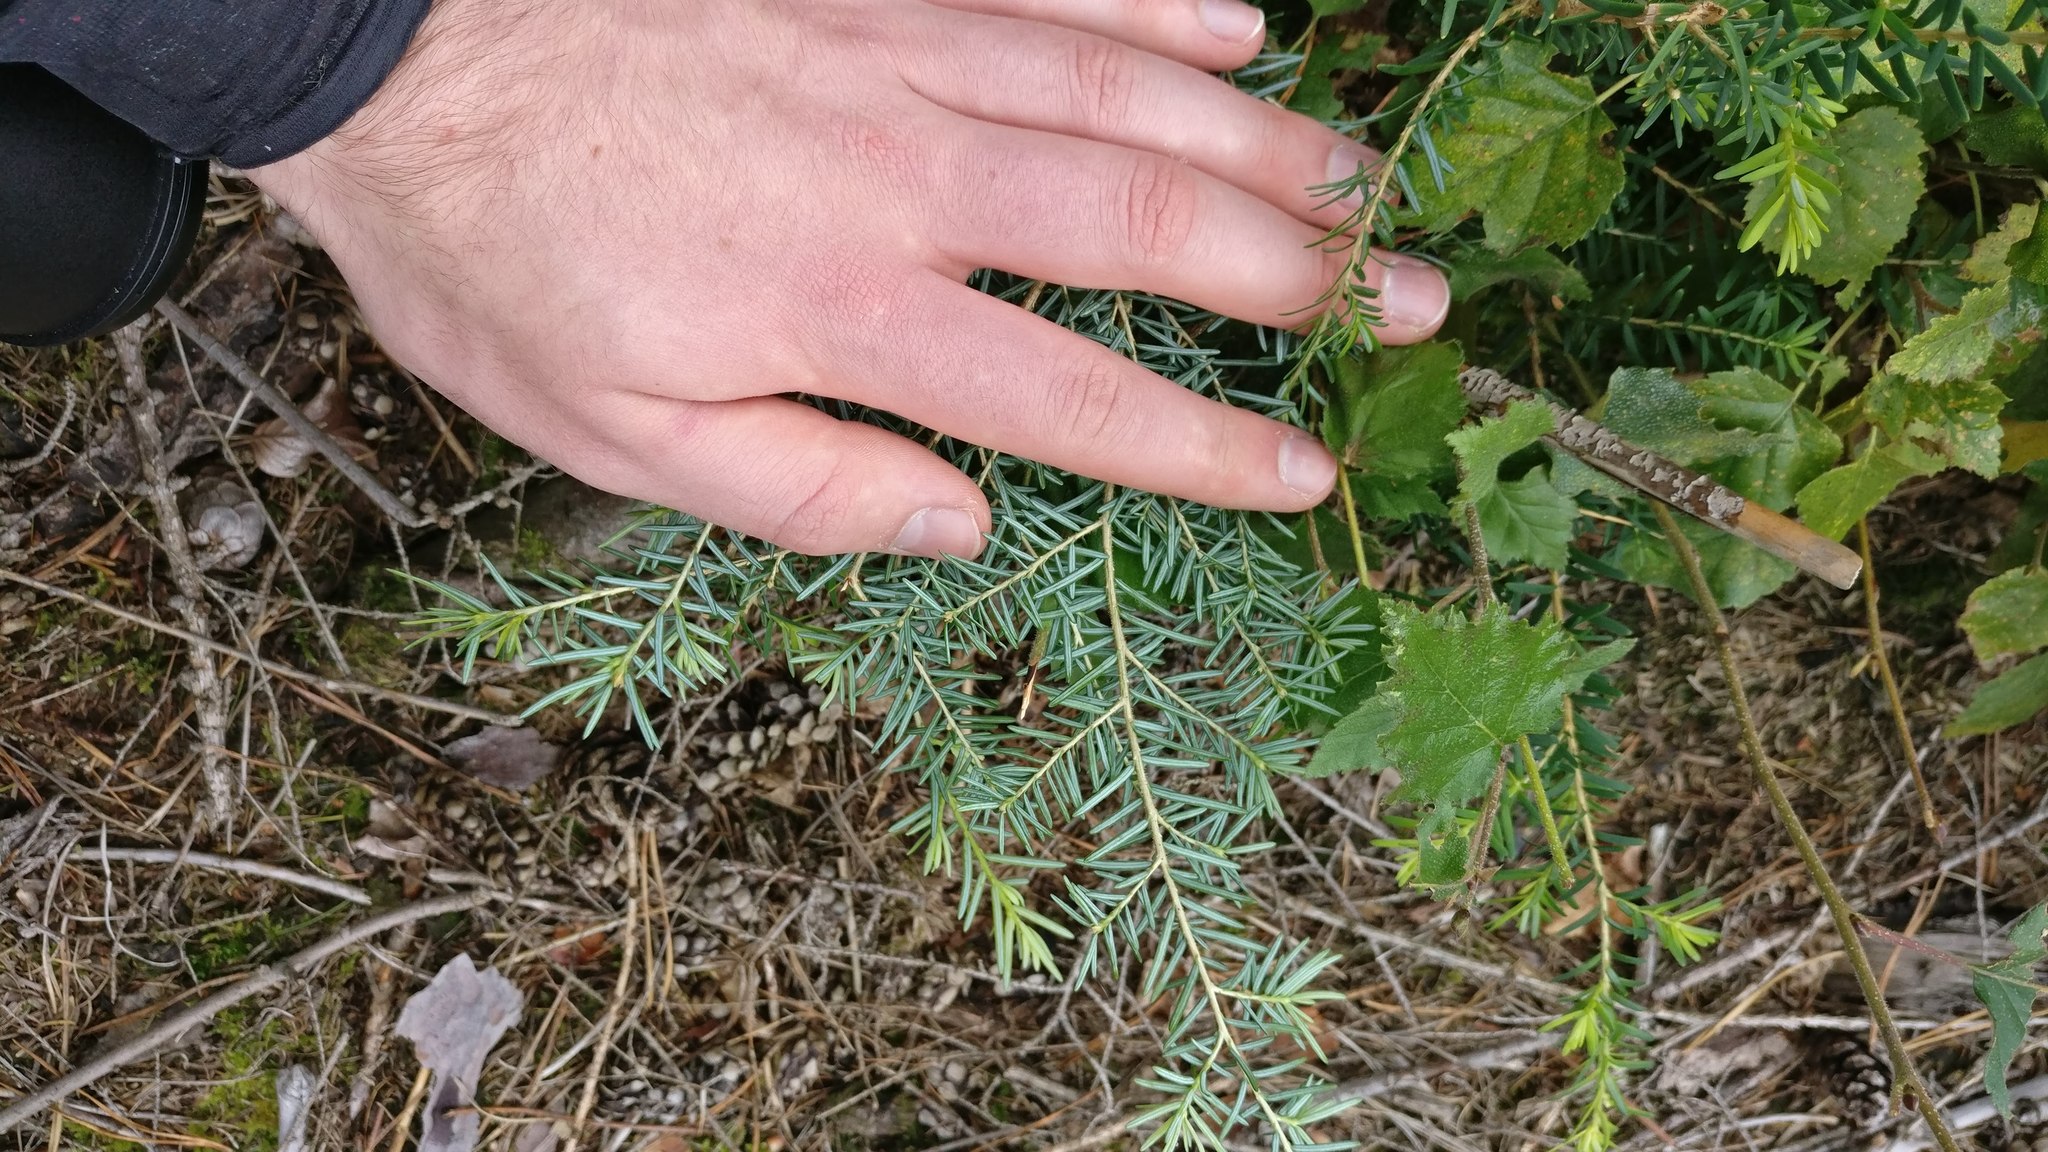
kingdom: Plantae
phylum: Tracheophyta
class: Pinopsida
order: Pinales
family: Pinaceae
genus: Tsuga
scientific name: Tsuga heterophylla
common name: Western hemlock
